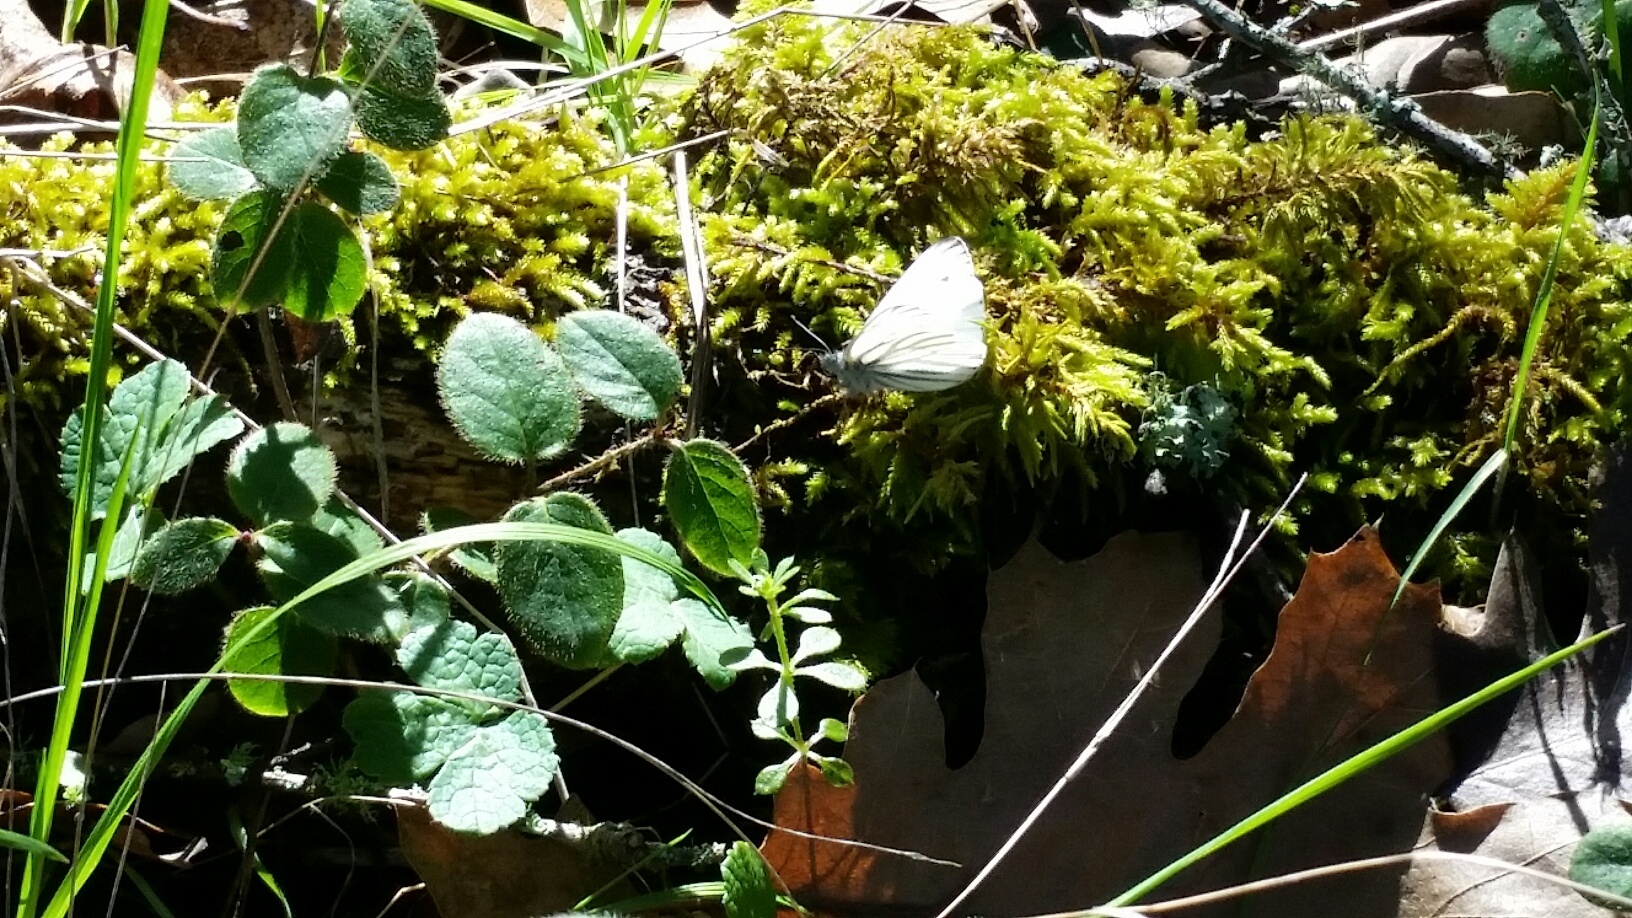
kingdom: Animalia
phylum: Arthropoda
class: Insecta
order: Lepidoptera
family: Pieridae
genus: Pieris
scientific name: Pieris marginalis
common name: Margined white
